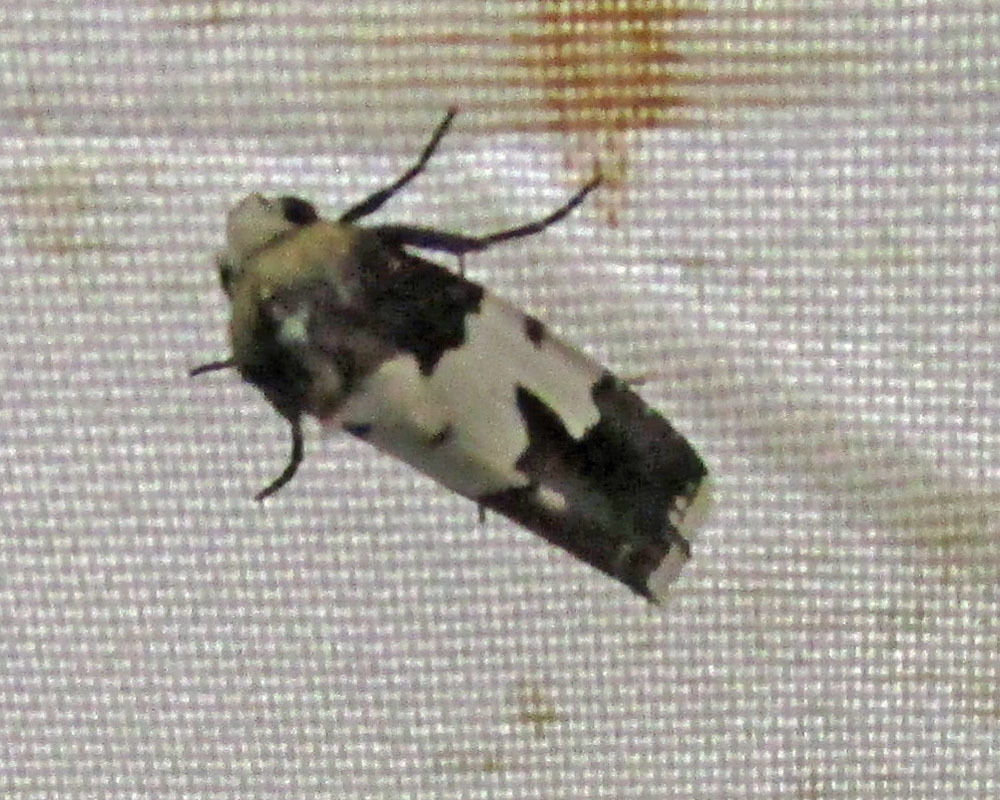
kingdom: Animalia
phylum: Arthropoda
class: Insecta
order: Lepidoptera
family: Noctuidae
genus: Bryolymnia
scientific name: Bryolymnia marginata
